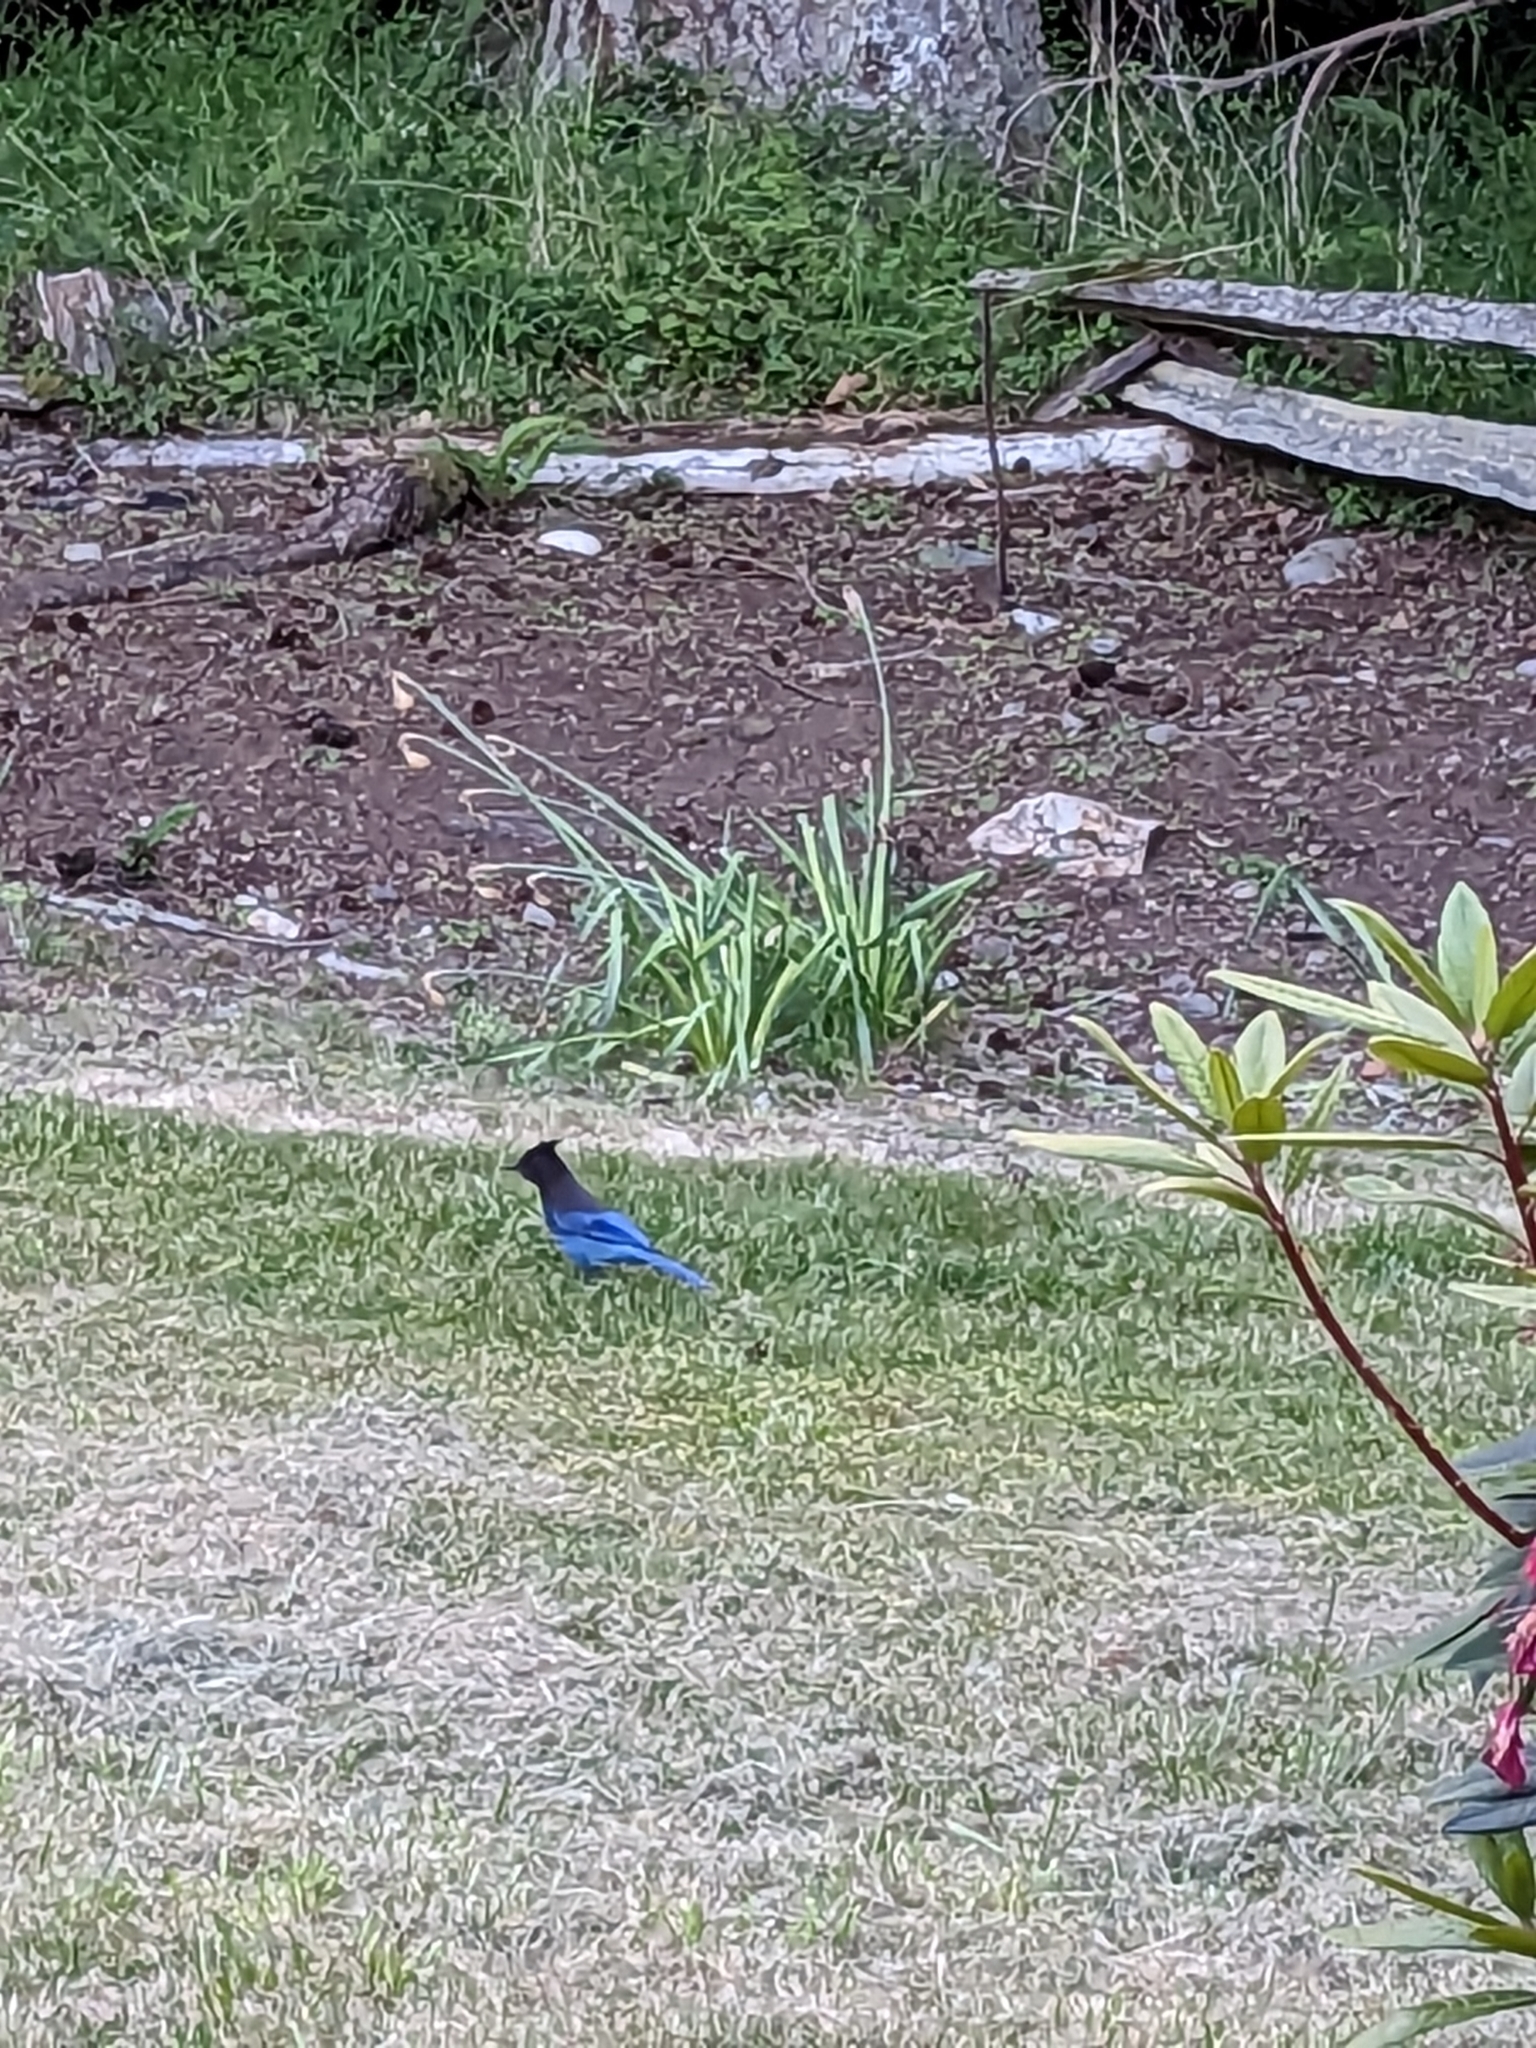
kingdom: Animalia
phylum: Chordata
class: Aves
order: Passeriformes
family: Corvidae
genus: Cyanocitta
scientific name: Cyanocitta stelleri
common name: Steller's jay
